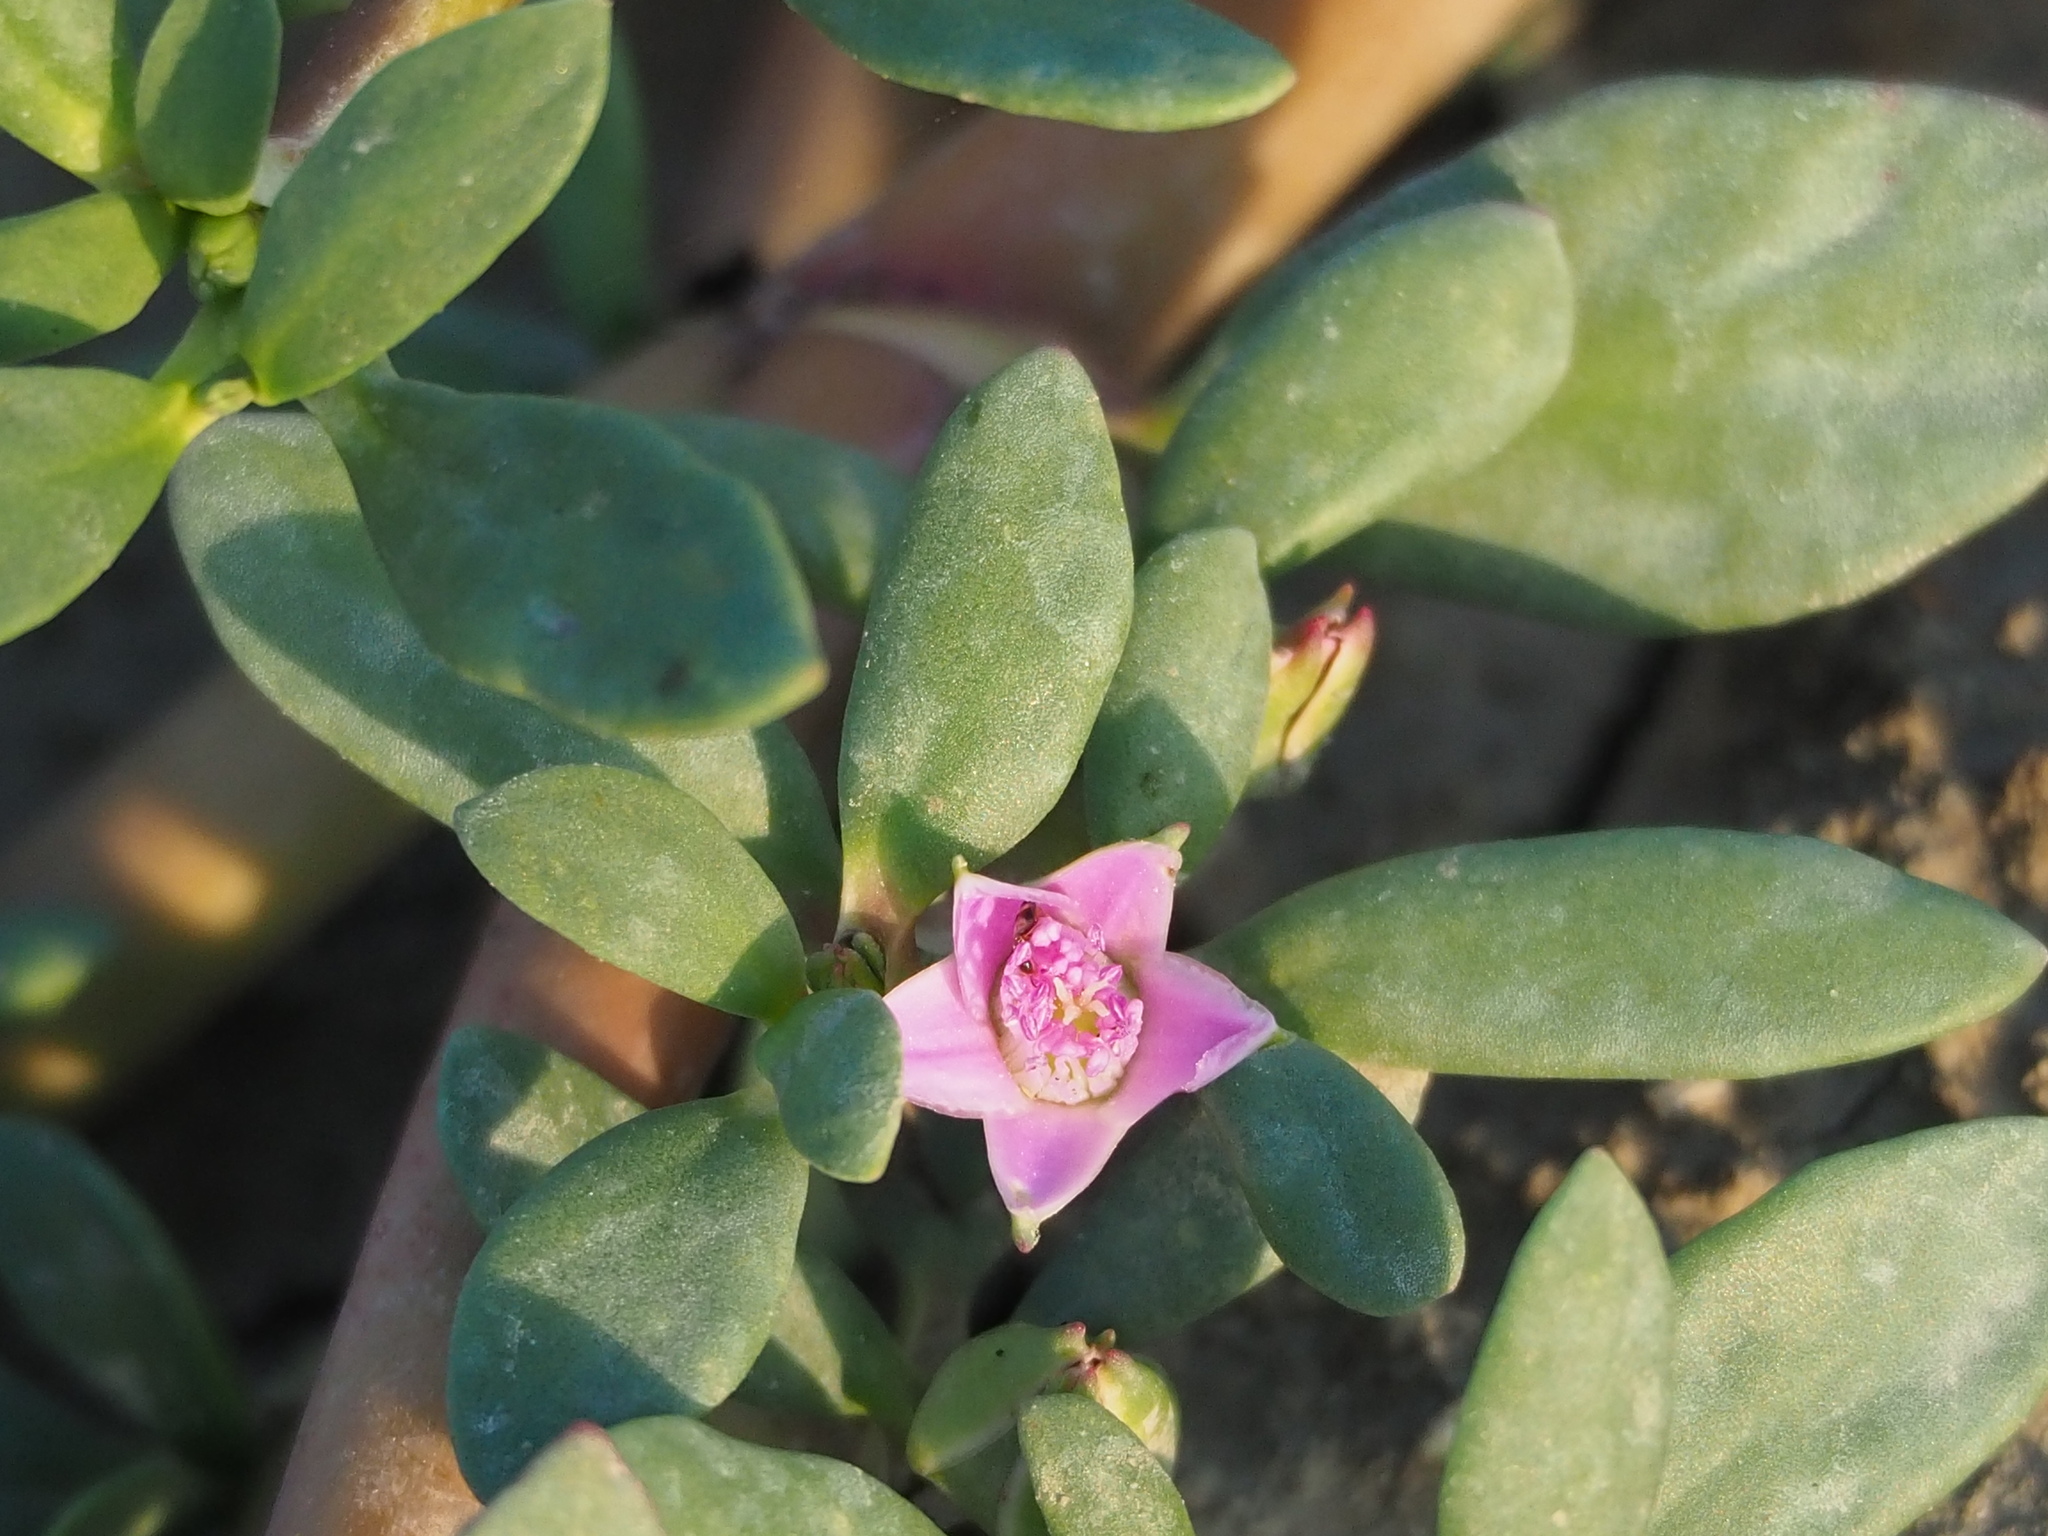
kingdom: Plantae
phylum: Tracheophyta
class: Magnoliopsida
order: Caryophyllales
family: Aizoaceae
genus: Sesuvium
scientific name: Sesuvium portulacastrum
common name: Sea-purslane
